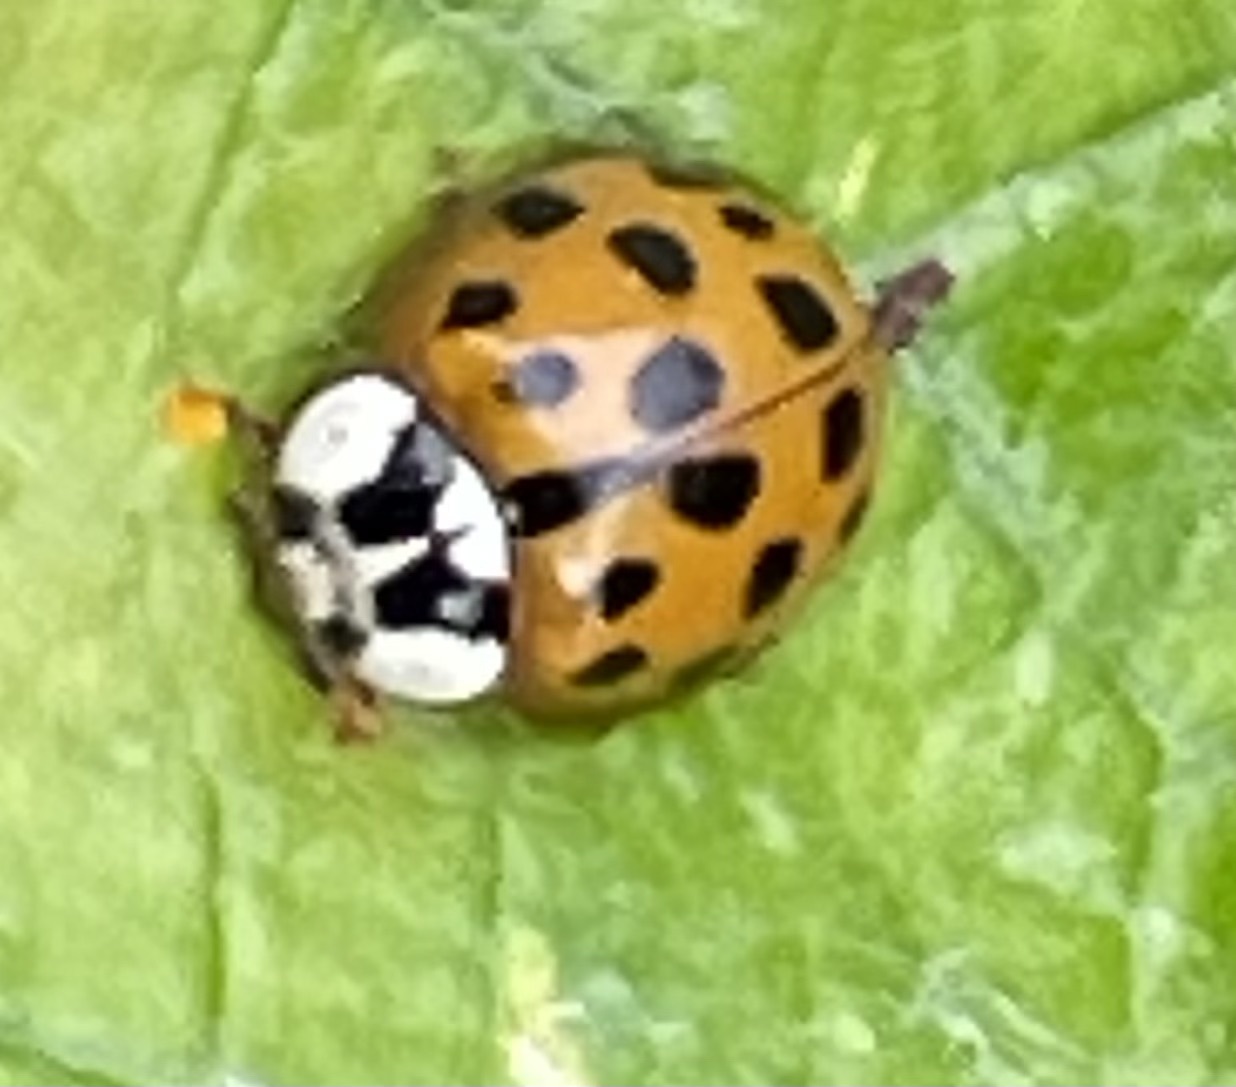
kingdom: Animalia
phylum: Arthropoda
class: Insecta
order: Coleoptera
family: Coccinellidae
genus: Harmonia
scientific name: Harmonia axyridis
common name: Harlequin ladybird
